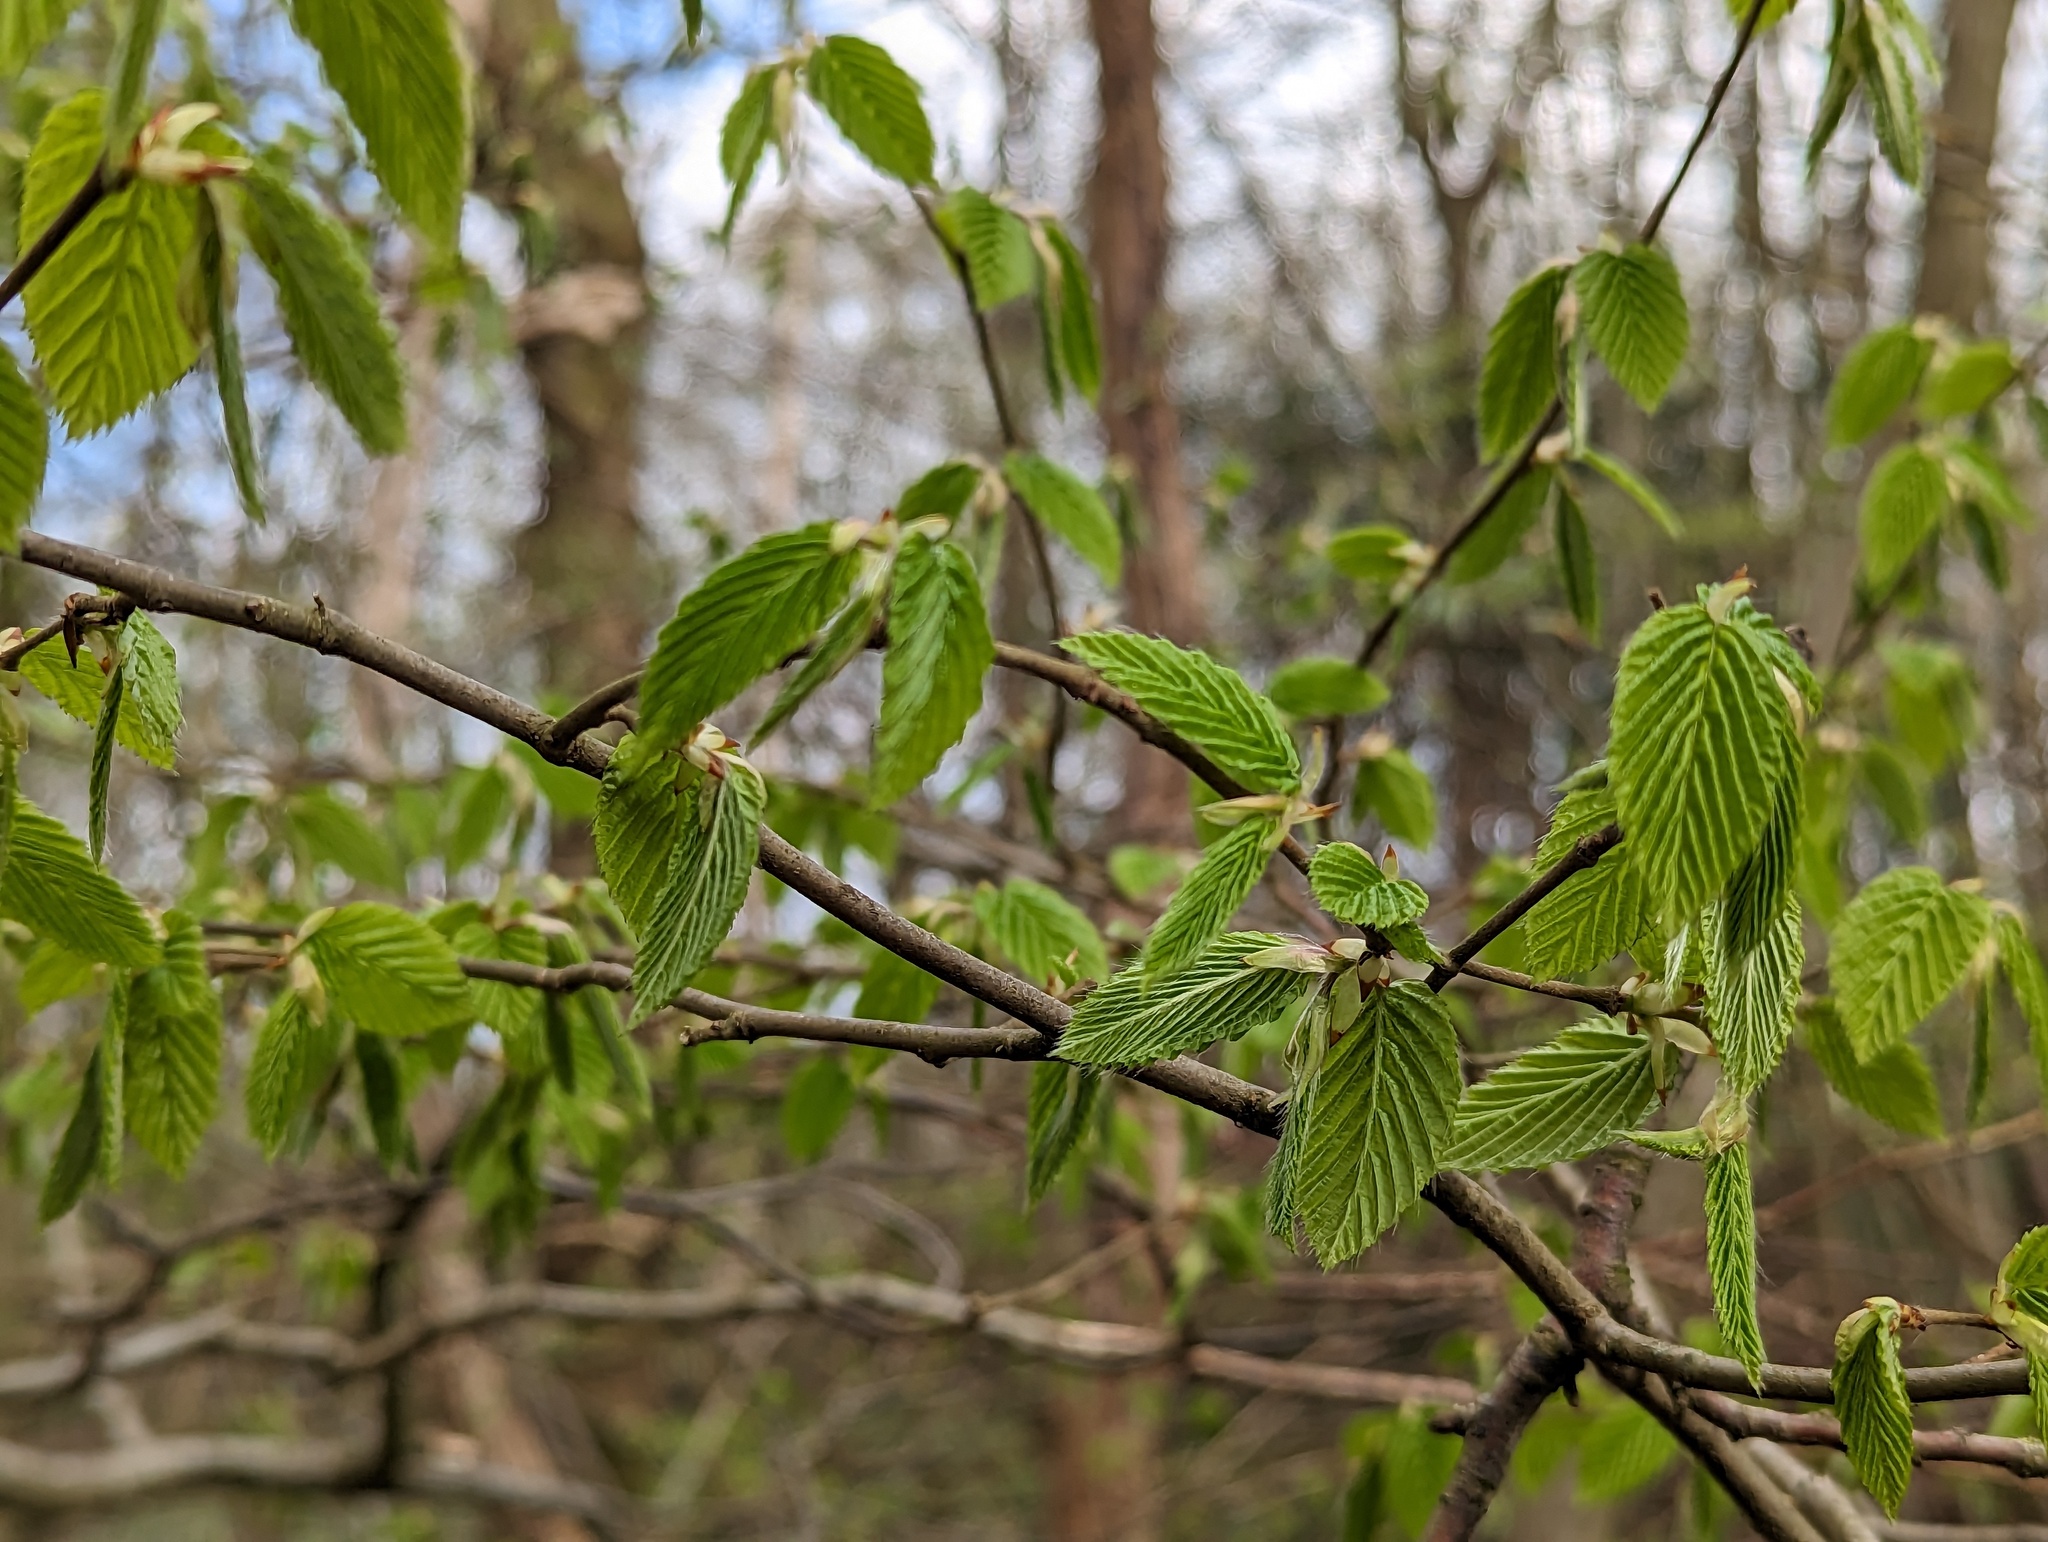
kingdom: Plantae
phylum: Tracheophyta
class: Magnoliopsida
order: Fagales
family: Betulaceae
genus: Carpinus
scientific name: Carpinus betulus
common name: Hornbeam
